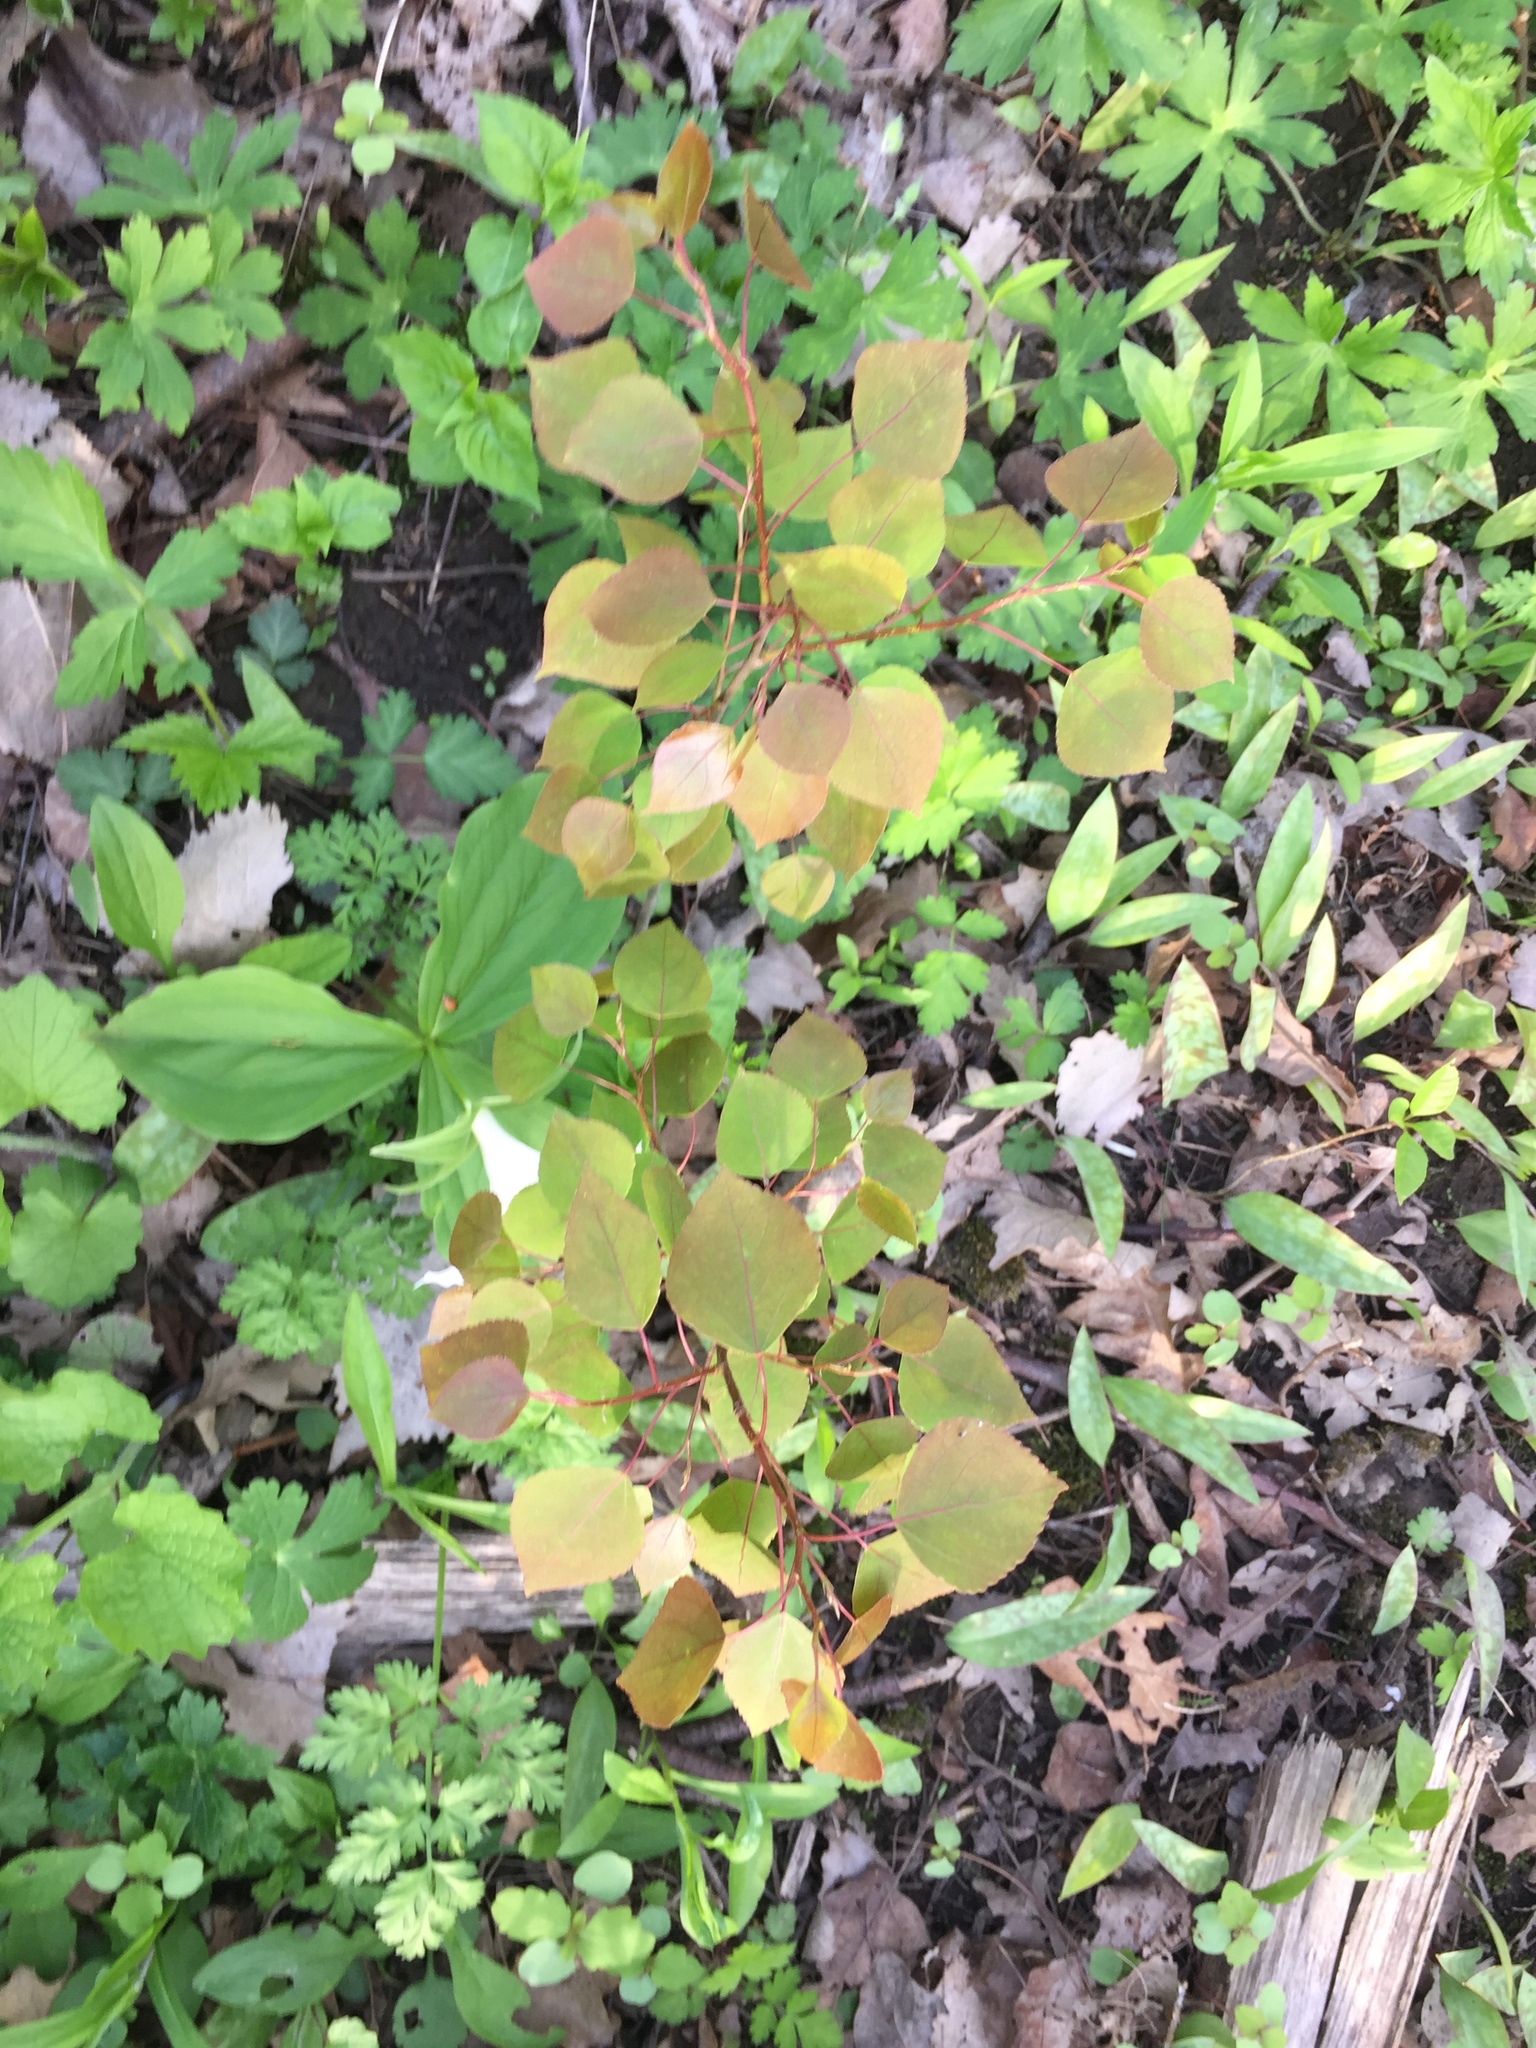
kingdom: Plantae
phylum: Tracheophyta
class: Magnoliopsida
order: Malpighiales
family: Salicaceae
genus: Populus
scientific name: Populus tremuloides
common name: Quaking aspen
